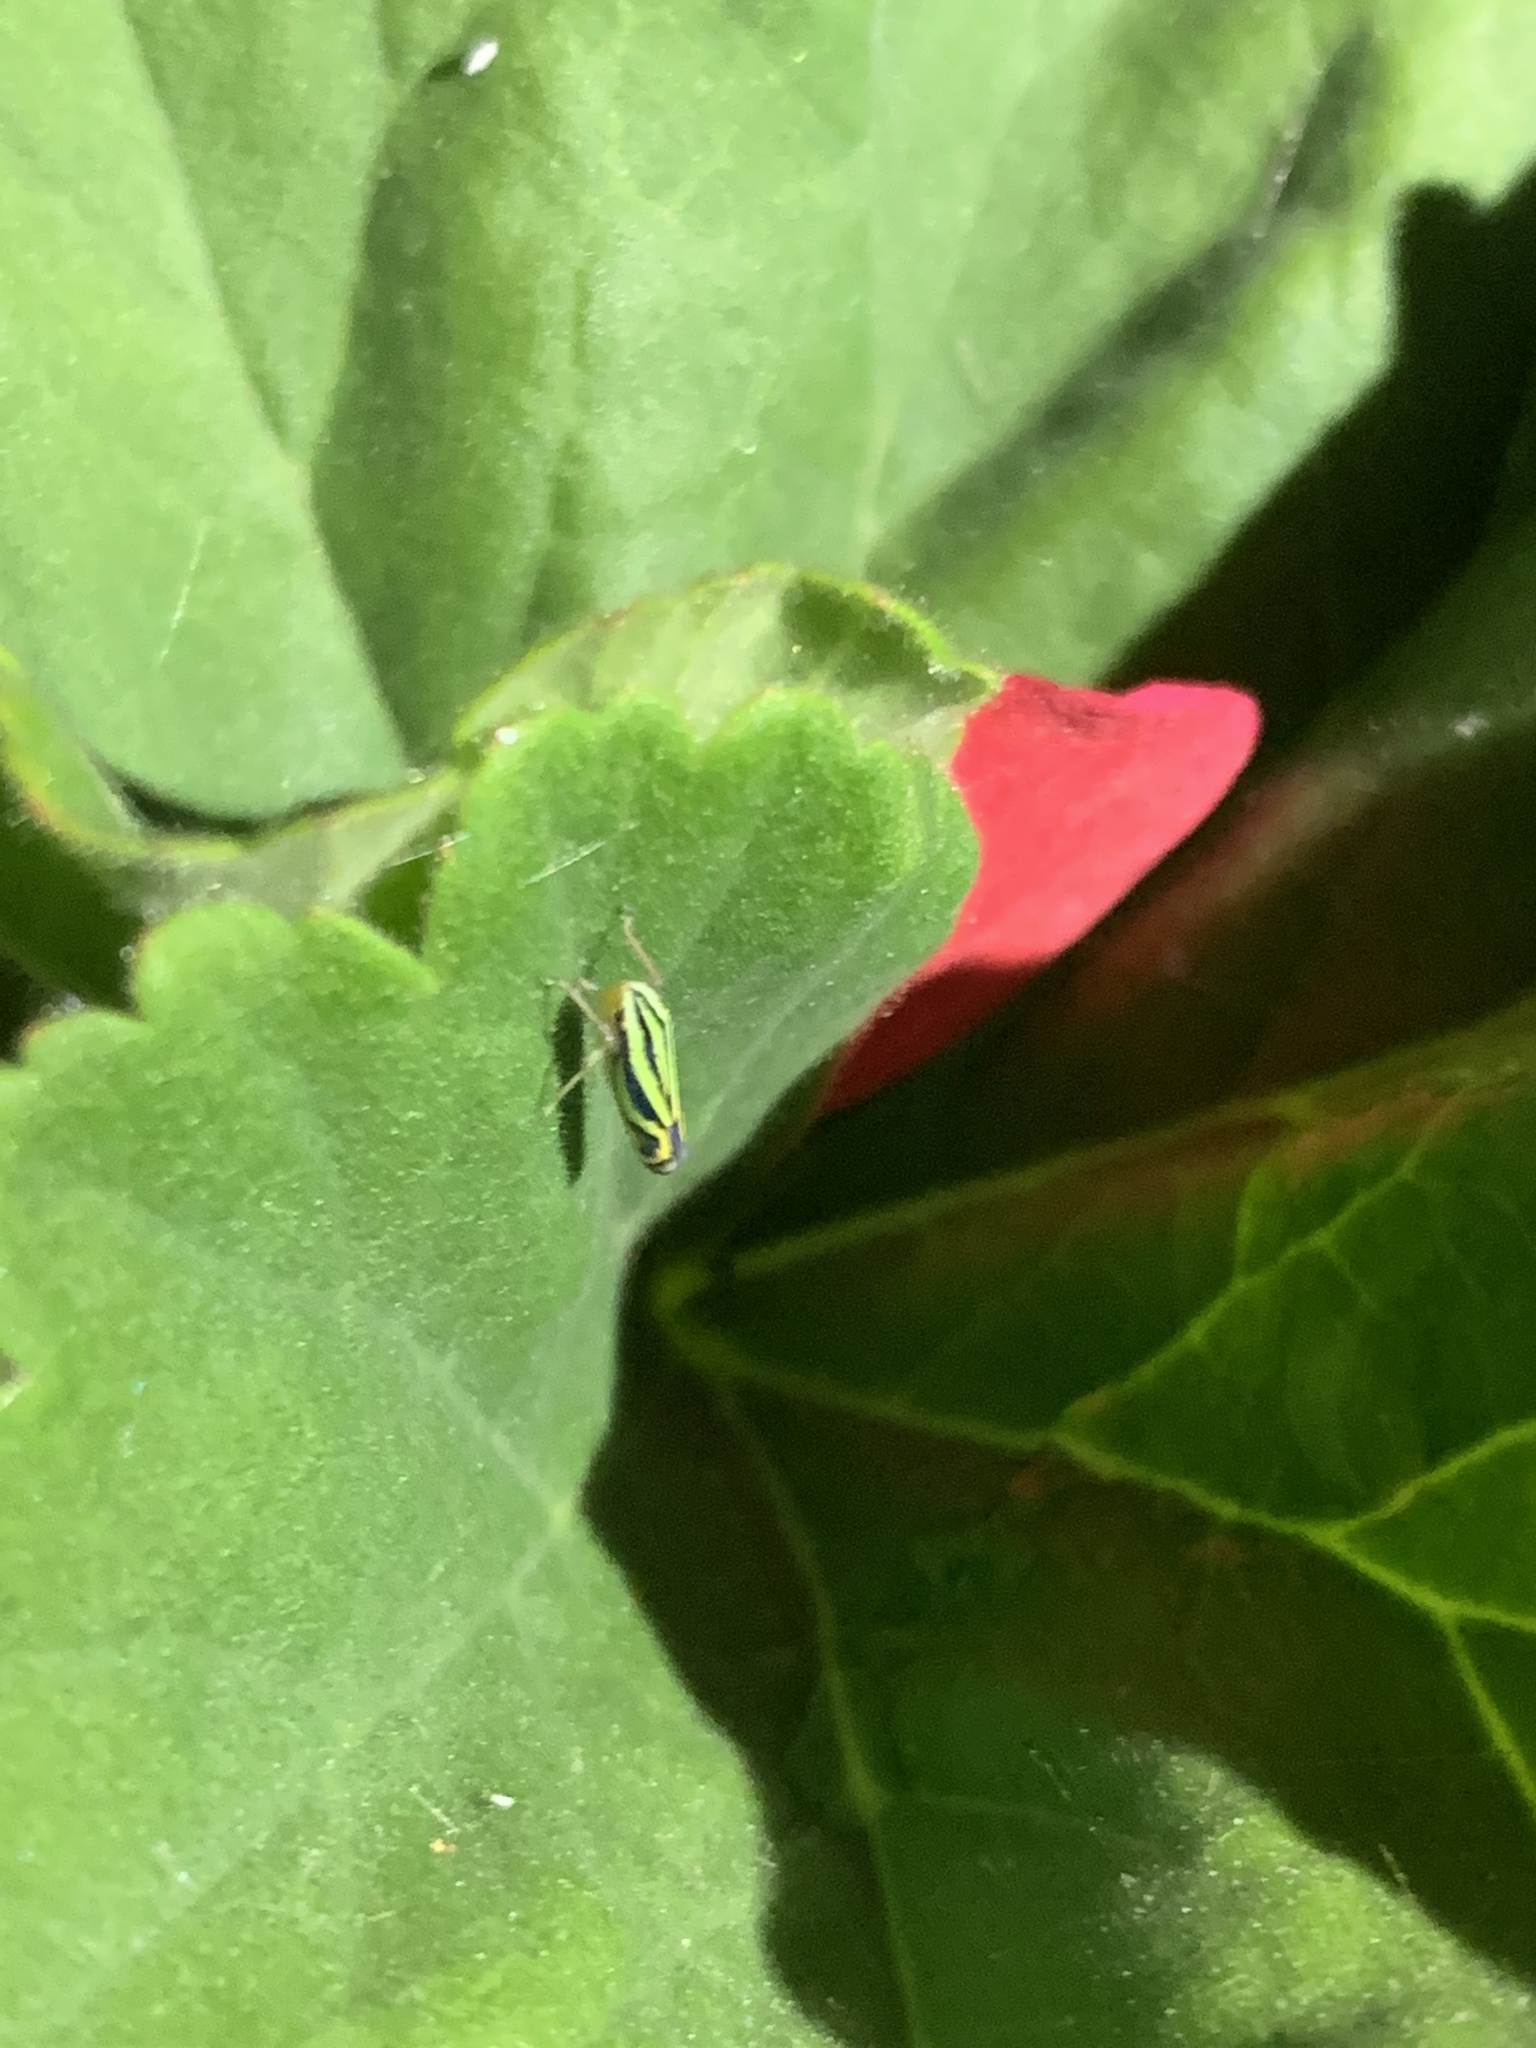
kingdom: Animalia
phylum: Arthropoda
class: Insecta
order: Hemiptera
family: Cicadellidae
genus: Sibovia
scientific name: Sibovia sagata
